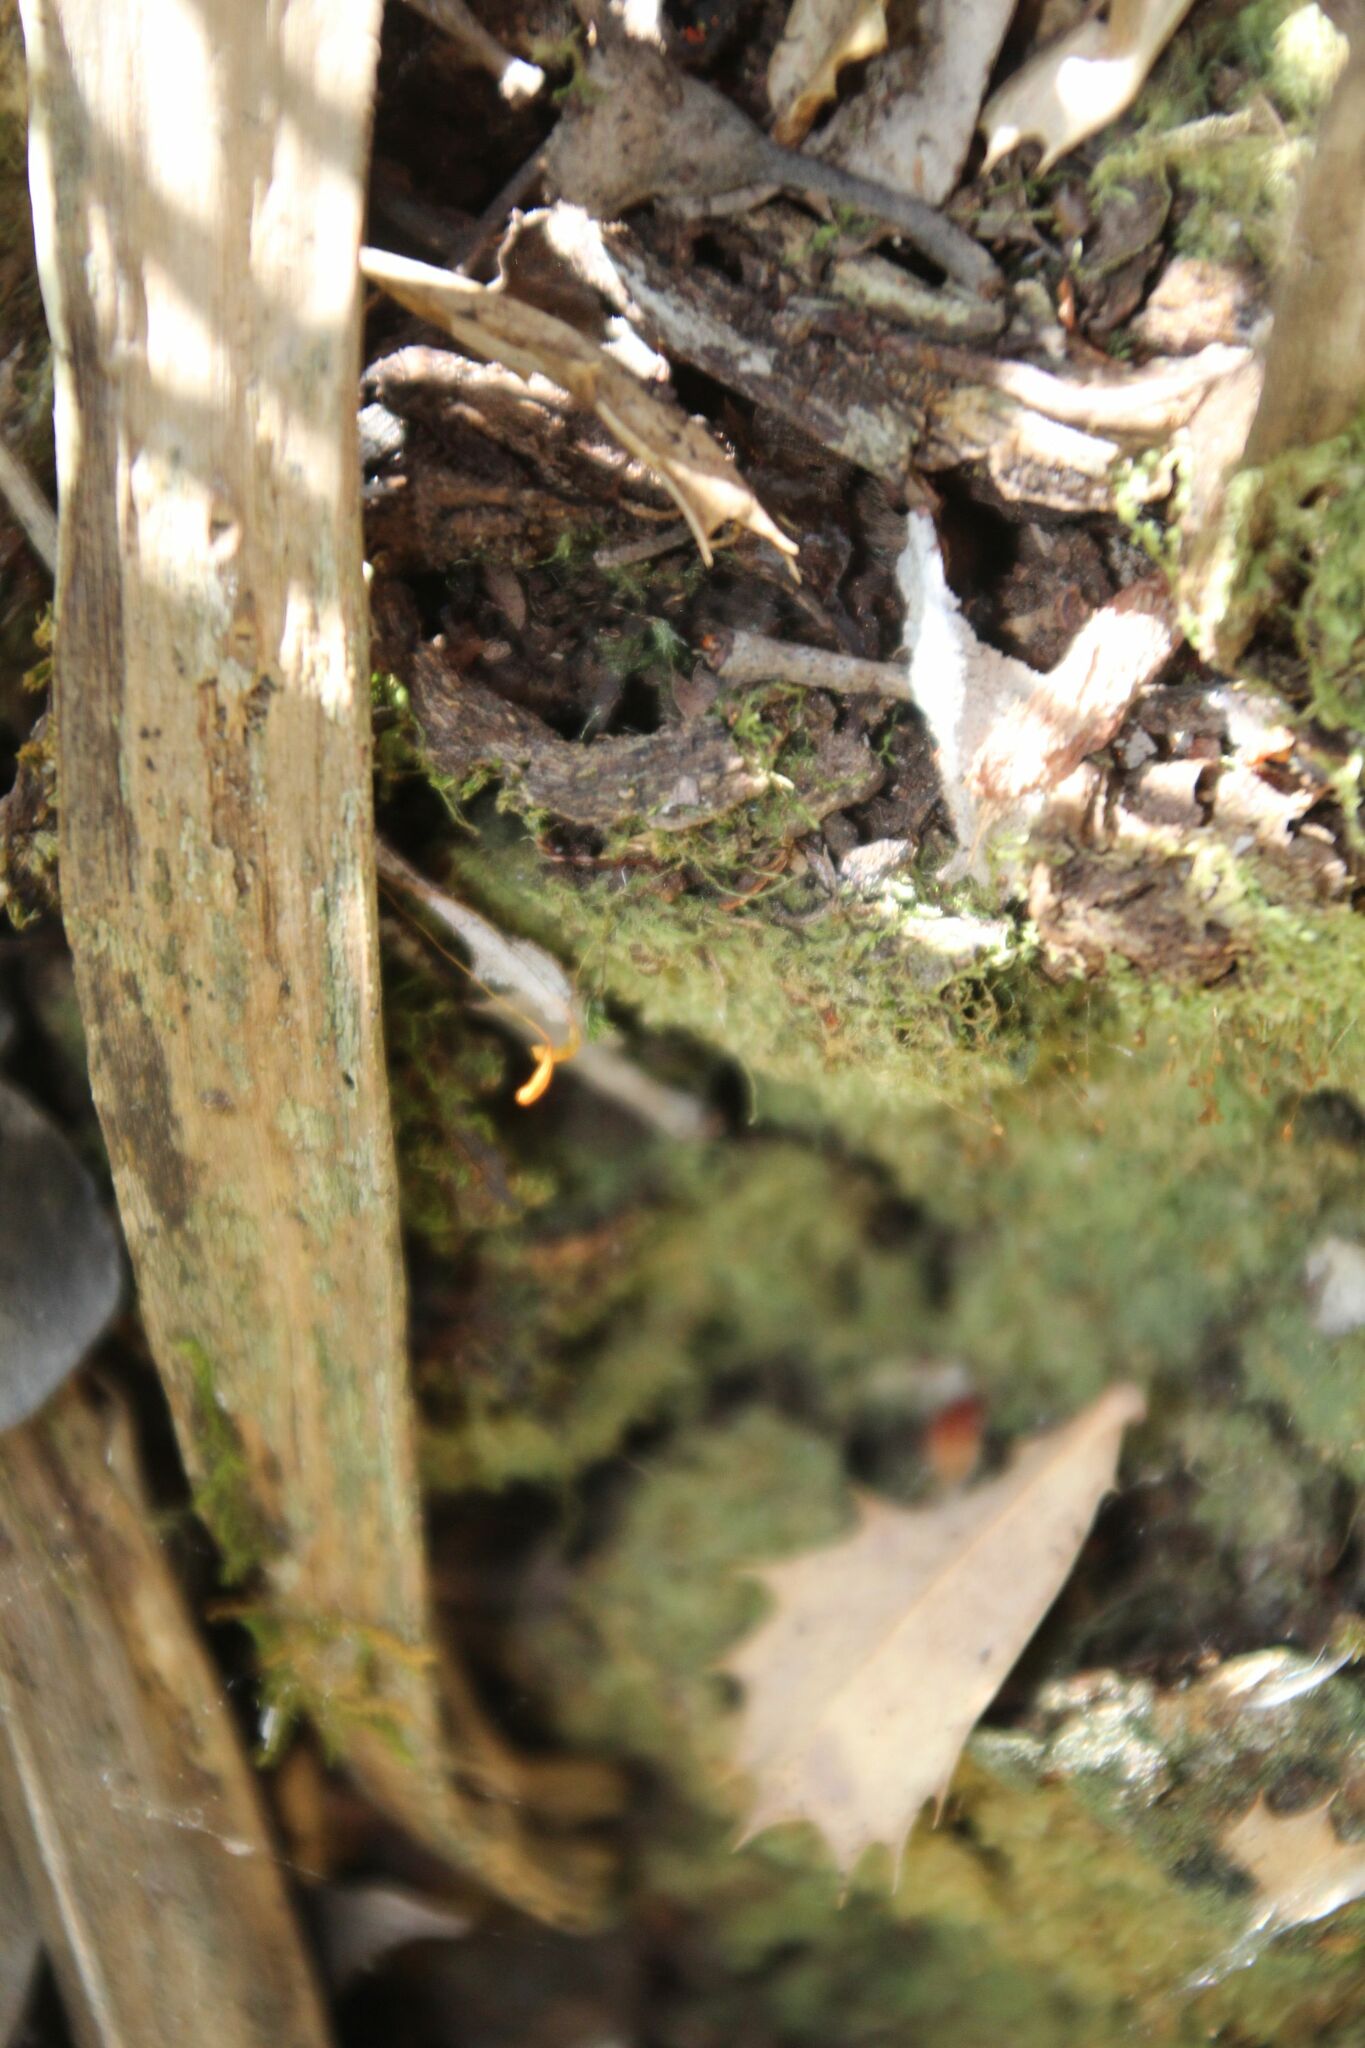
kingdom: Plantae
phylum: Bryophyta
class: Bryopsida
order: Hypnales
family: Fabroniaceae
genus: Fabronia
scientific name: Fabronia hampeana
